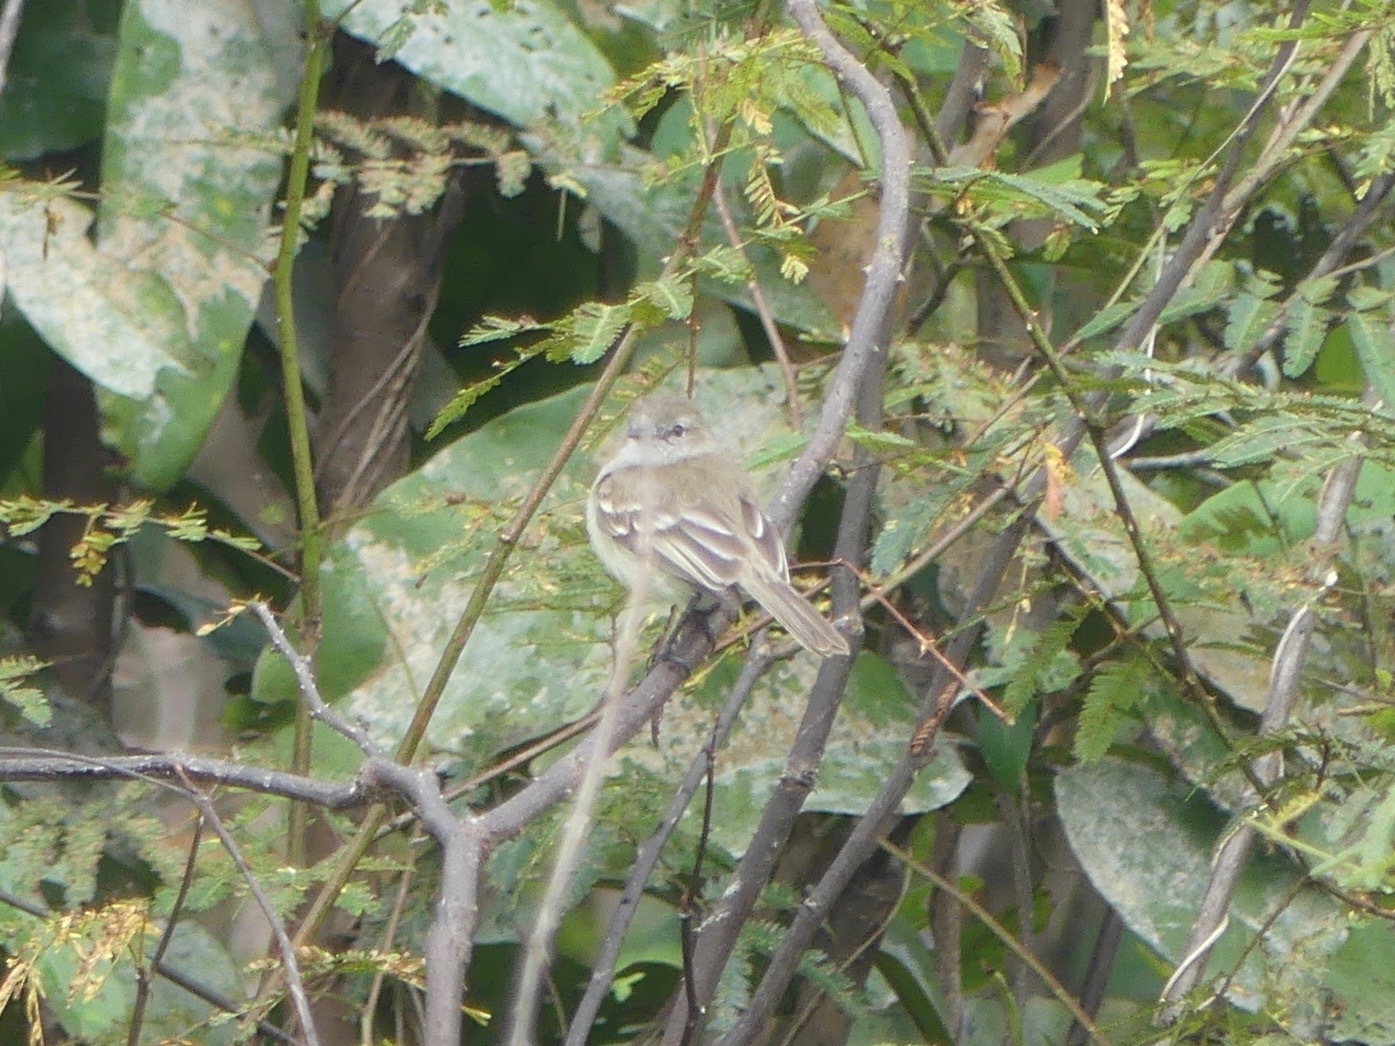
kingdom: Animalia
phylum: Chordata
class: Aves
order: Passeriformes
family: Tyrannidae
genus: Phaeomyias
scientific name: Phaeomyias murina
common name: Mouse-colored tyrannulet
